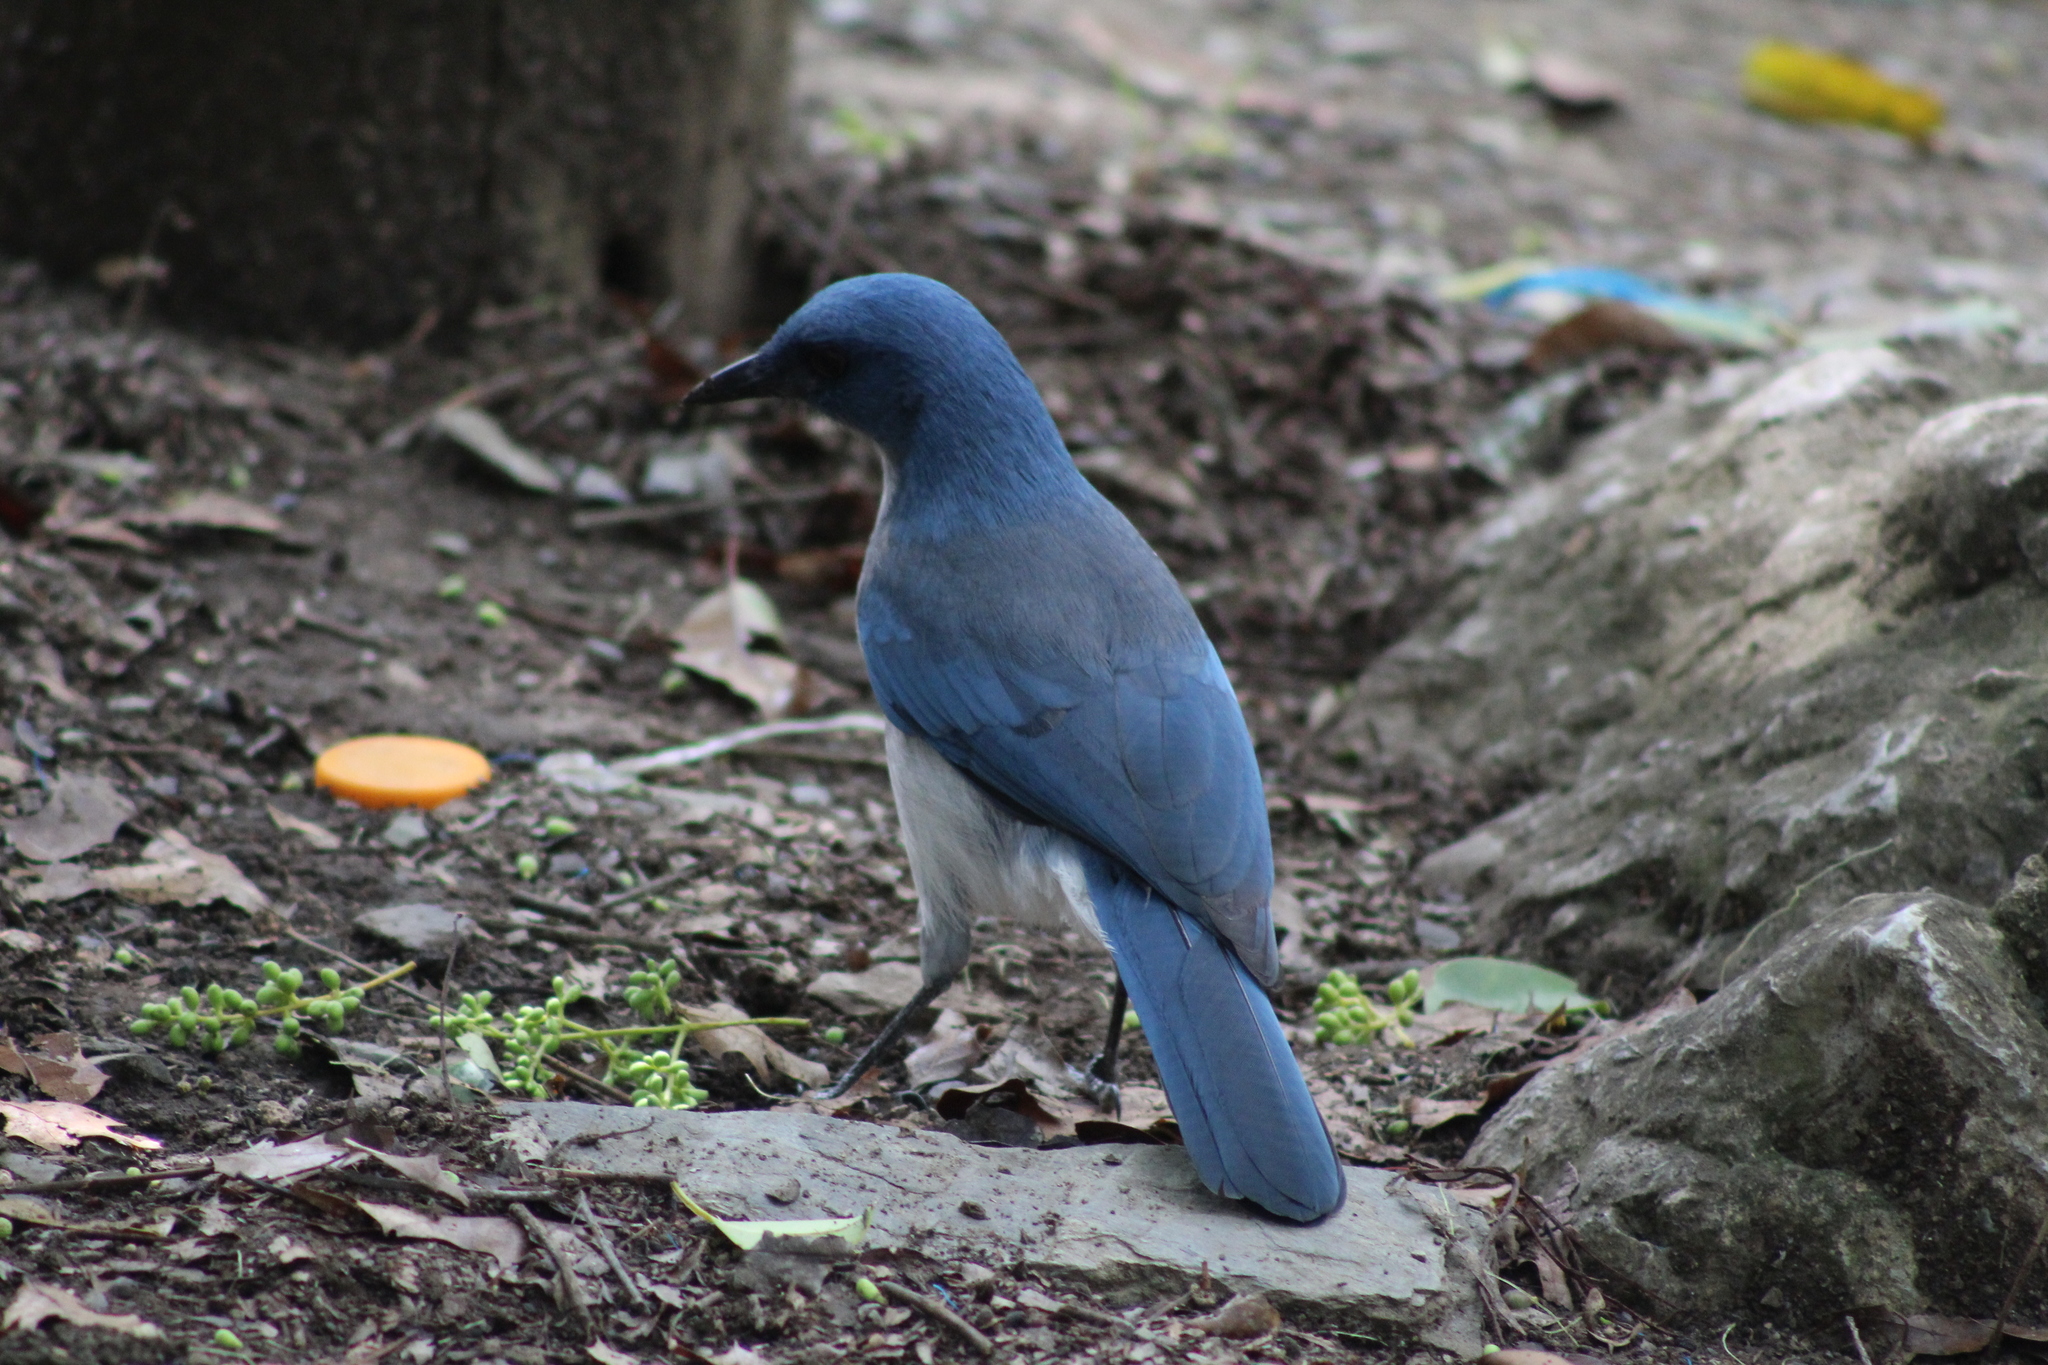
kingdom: Animalia
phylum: Chordata
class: Aves
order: Passeriformes
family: Corvidae
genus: Aphelocoma
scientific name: Aphelocoma wollweberi
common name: Mexican jay
